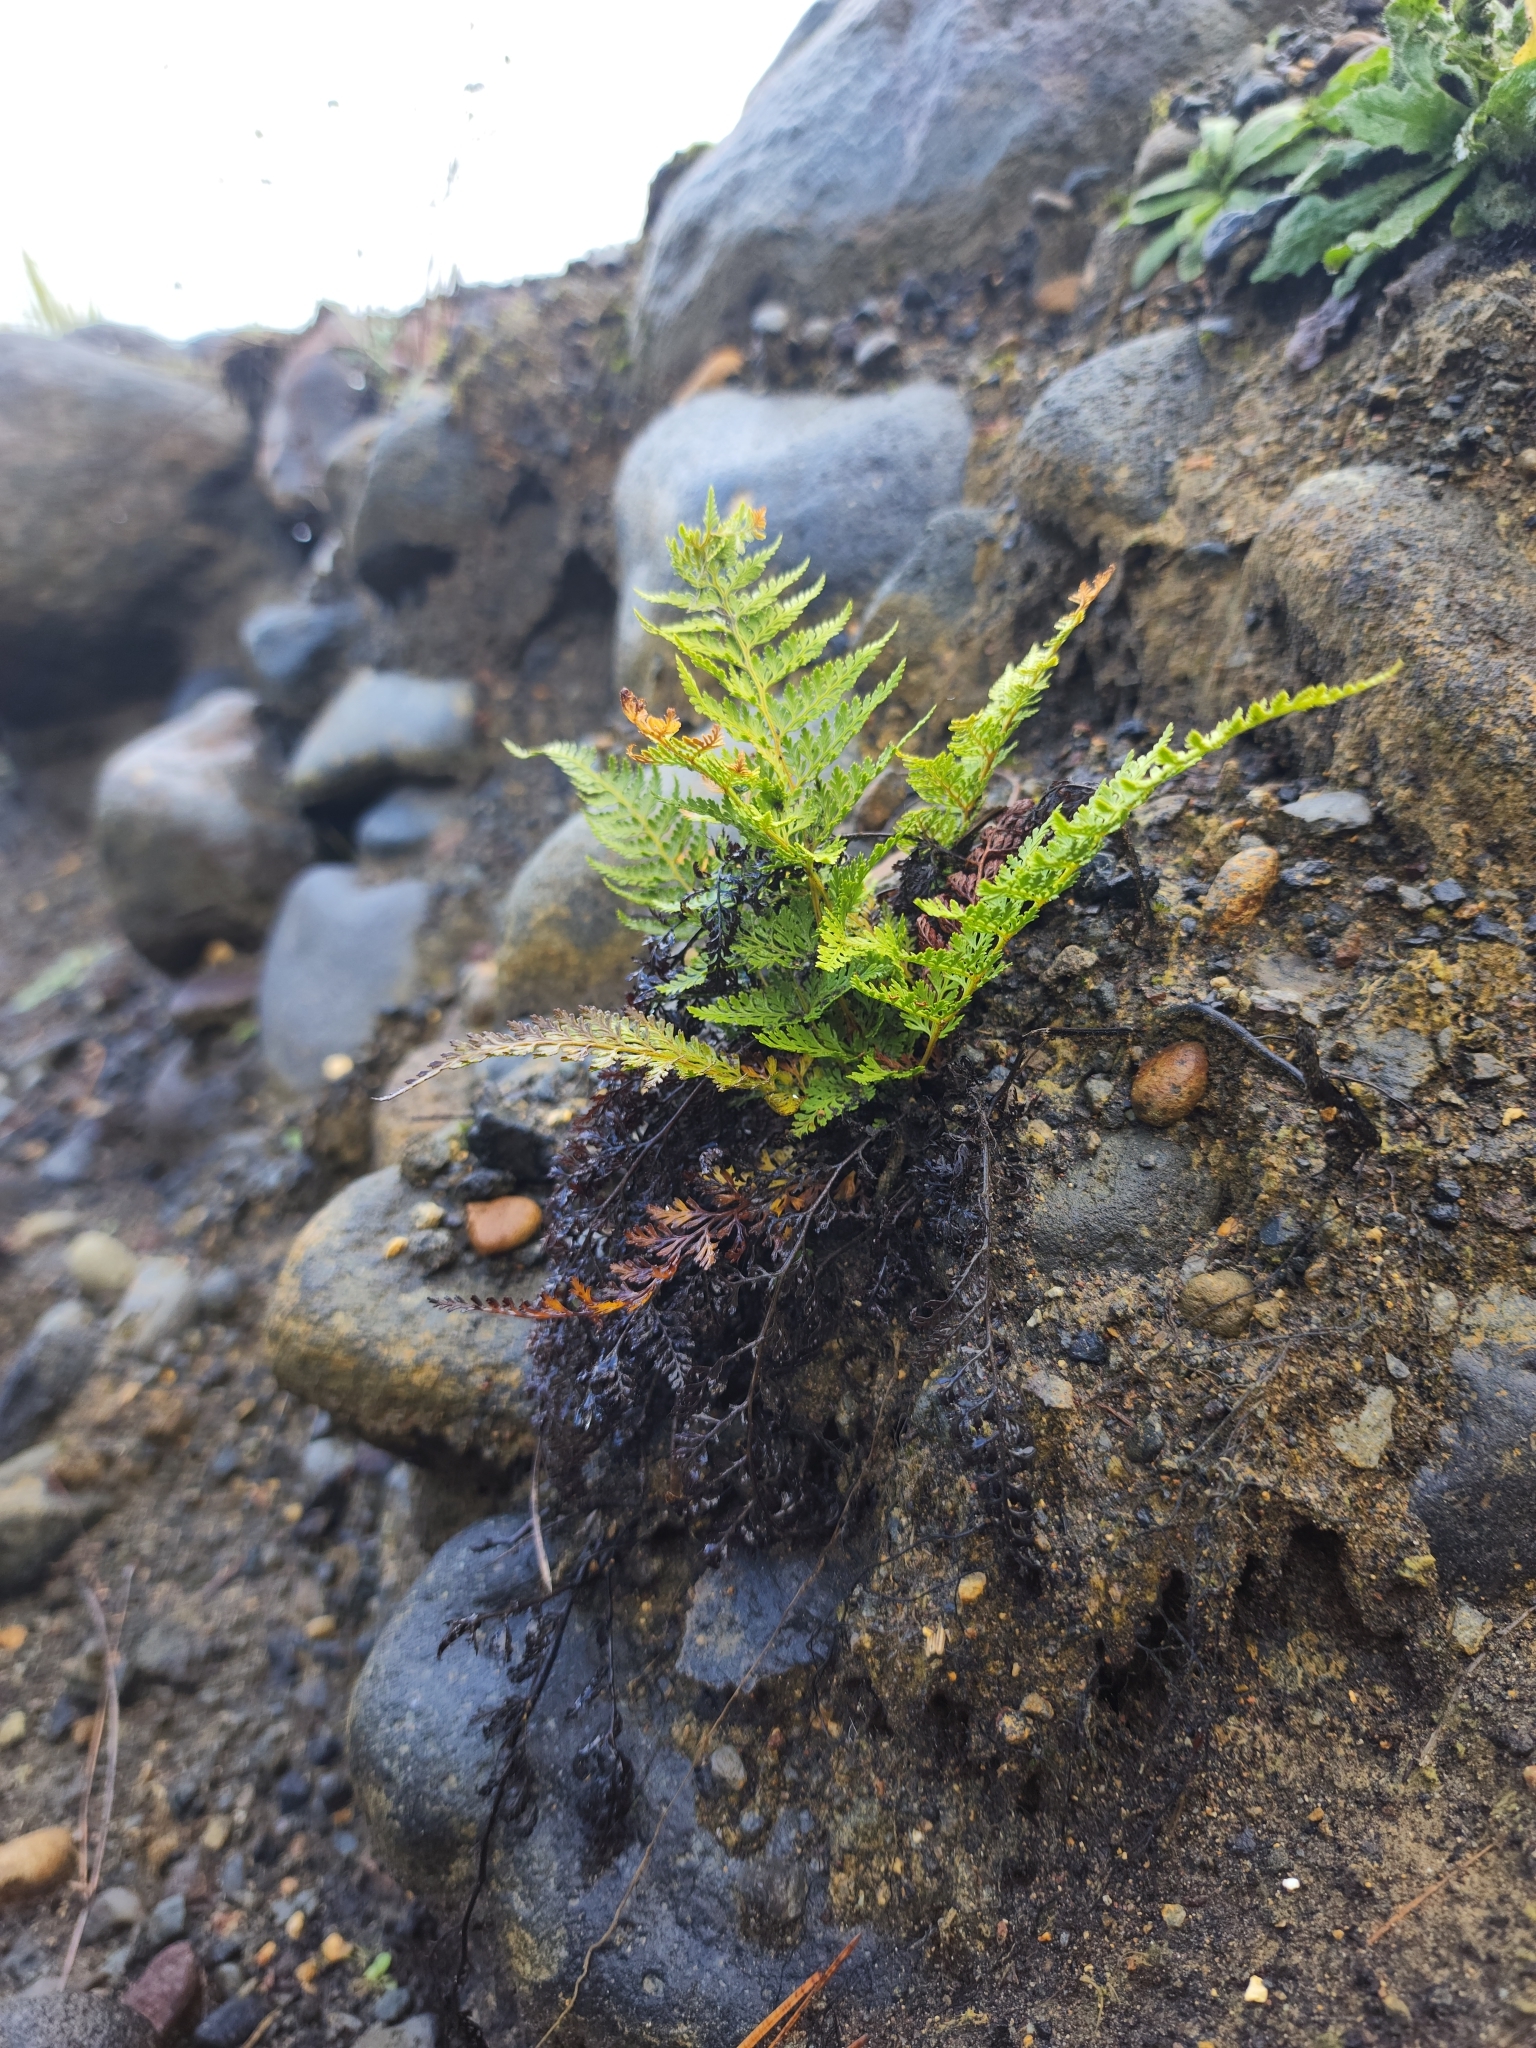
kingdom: Plantae
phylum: Tracheophyta
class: Polypodiopsida
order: Polypodiales
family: Dennstaedtiaceae
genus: Paesia
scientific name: Paesia scaberula
